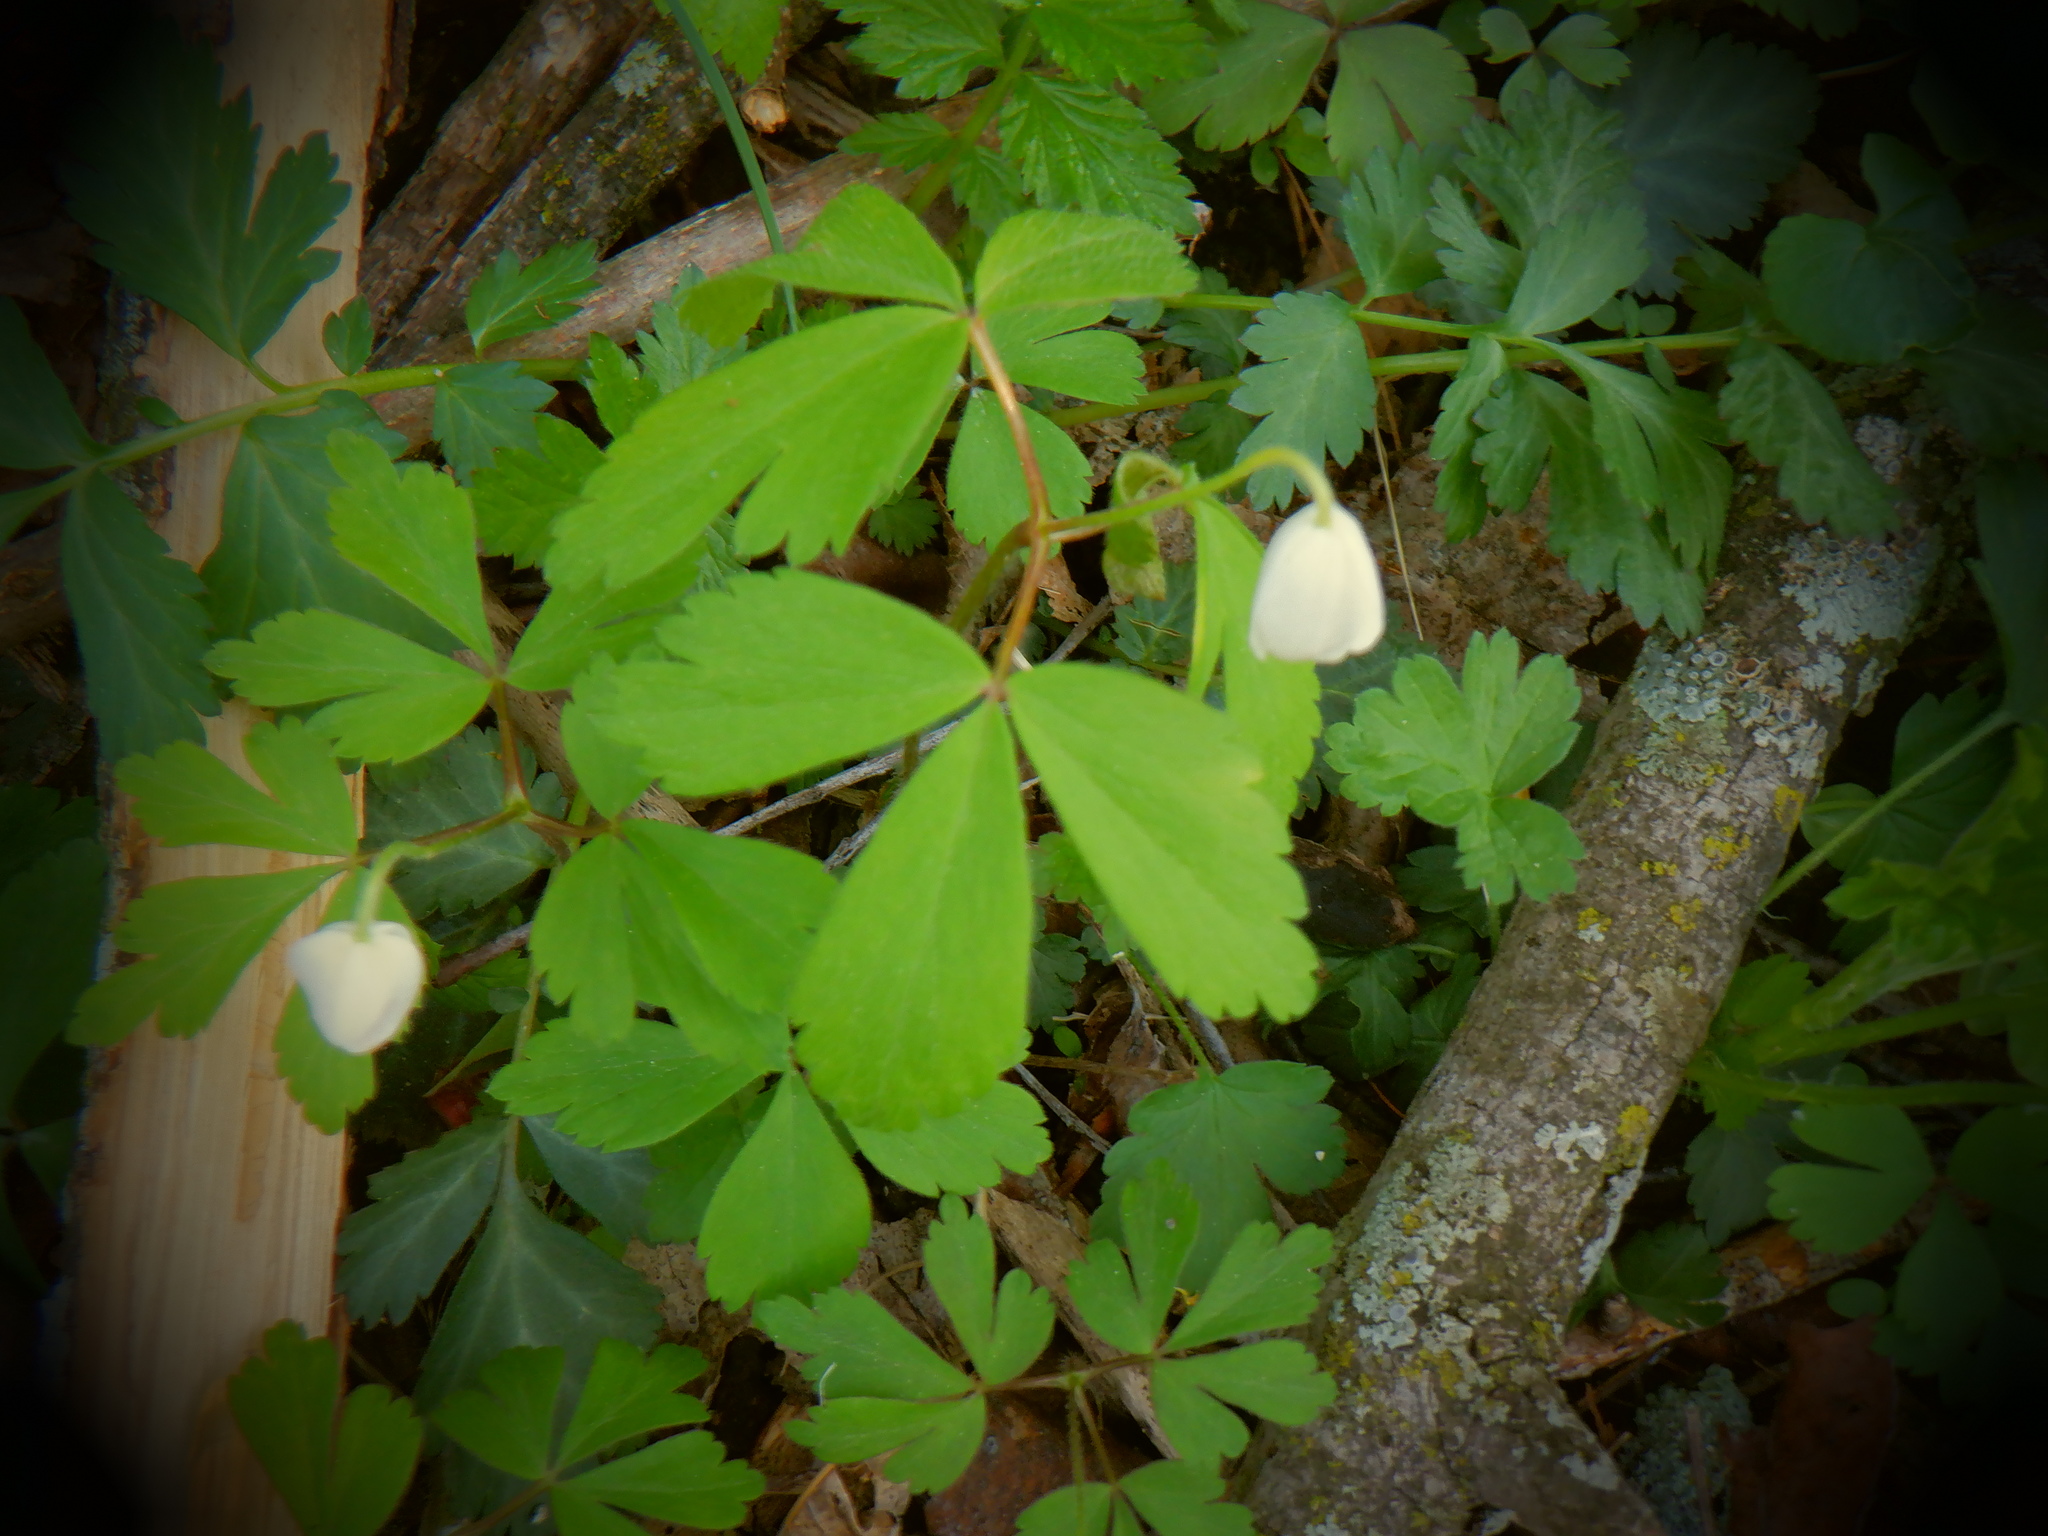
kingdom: Plantae
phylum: Tracheophyta
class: Magnoliopsida
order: Ranunculales
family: Ranunculaceae
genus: Anemone
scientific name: Anemone quinquefolia
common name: Wood anemone
